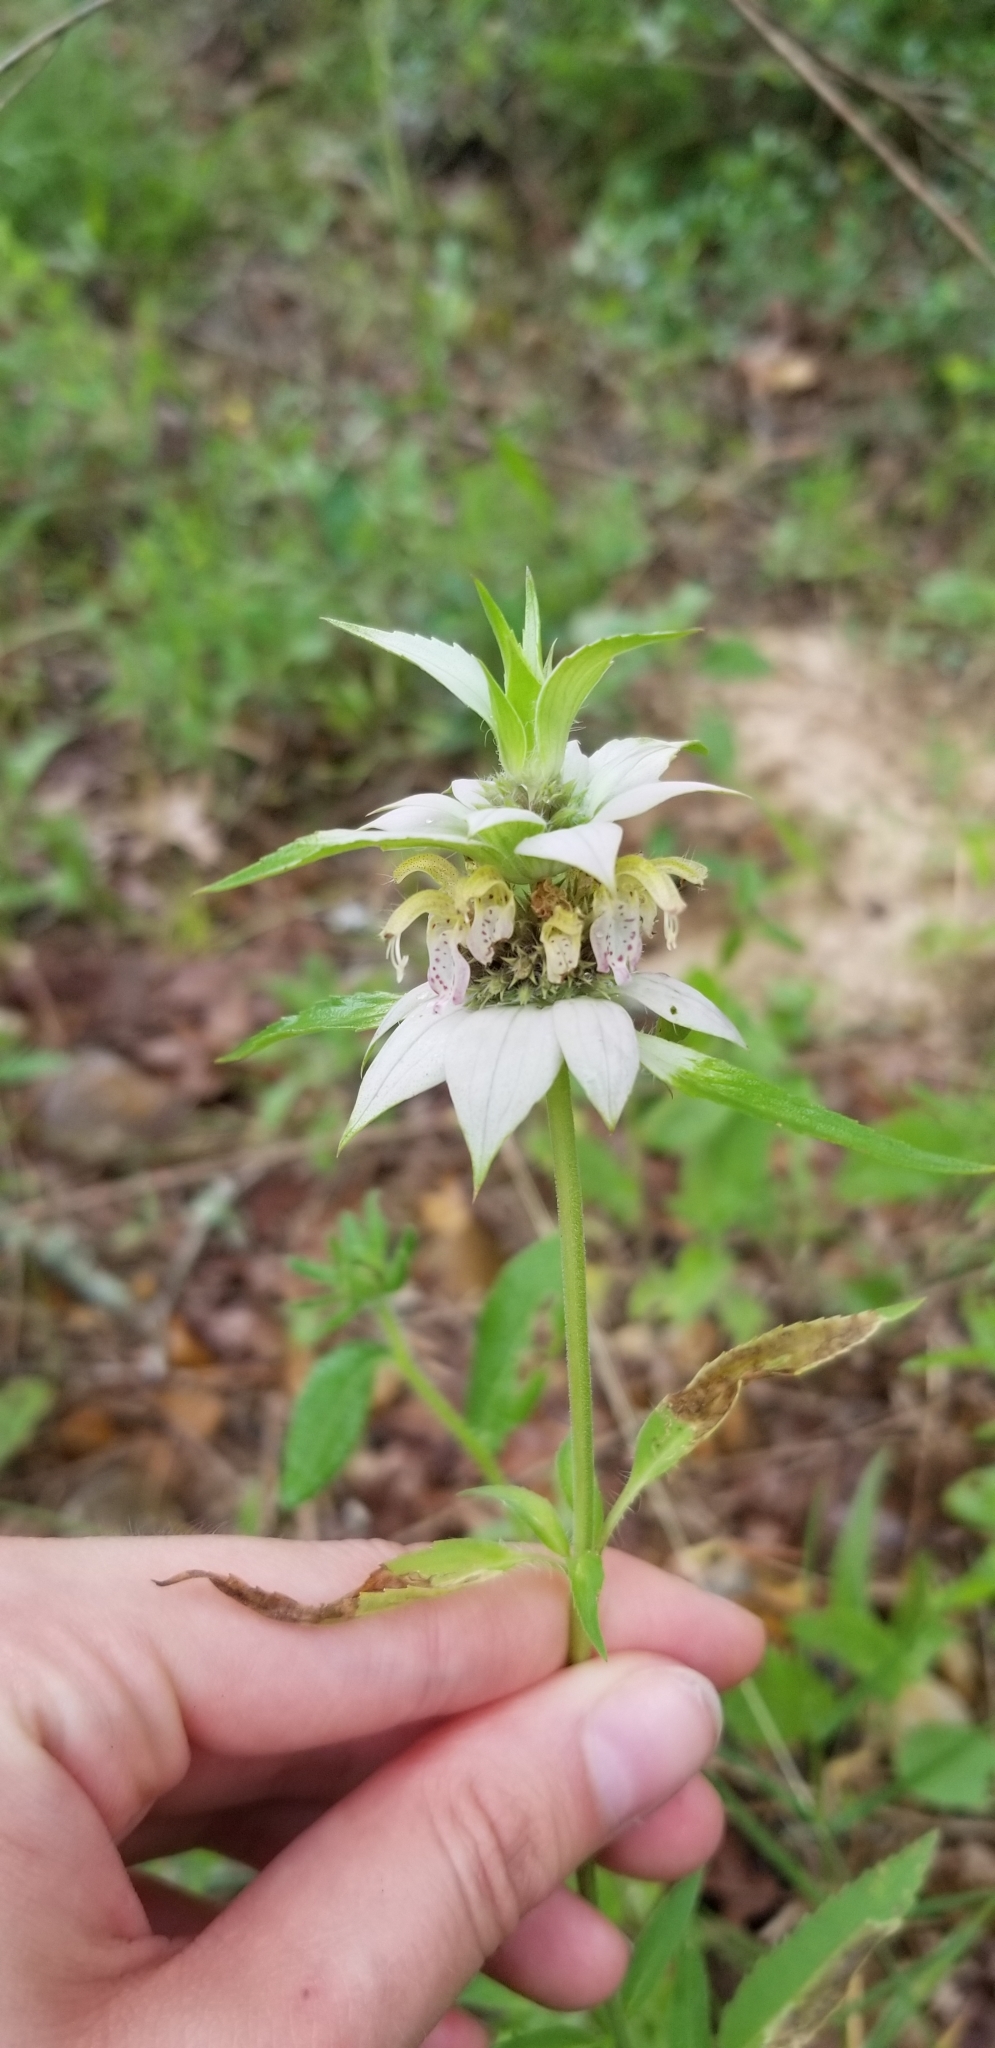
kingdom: Plantae
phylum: Tracheophyta
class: Magnoliopsida
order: Lamiales
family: Lamiaceae
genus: Monarda
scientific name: Monarda punctata
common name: Dotted monarda
